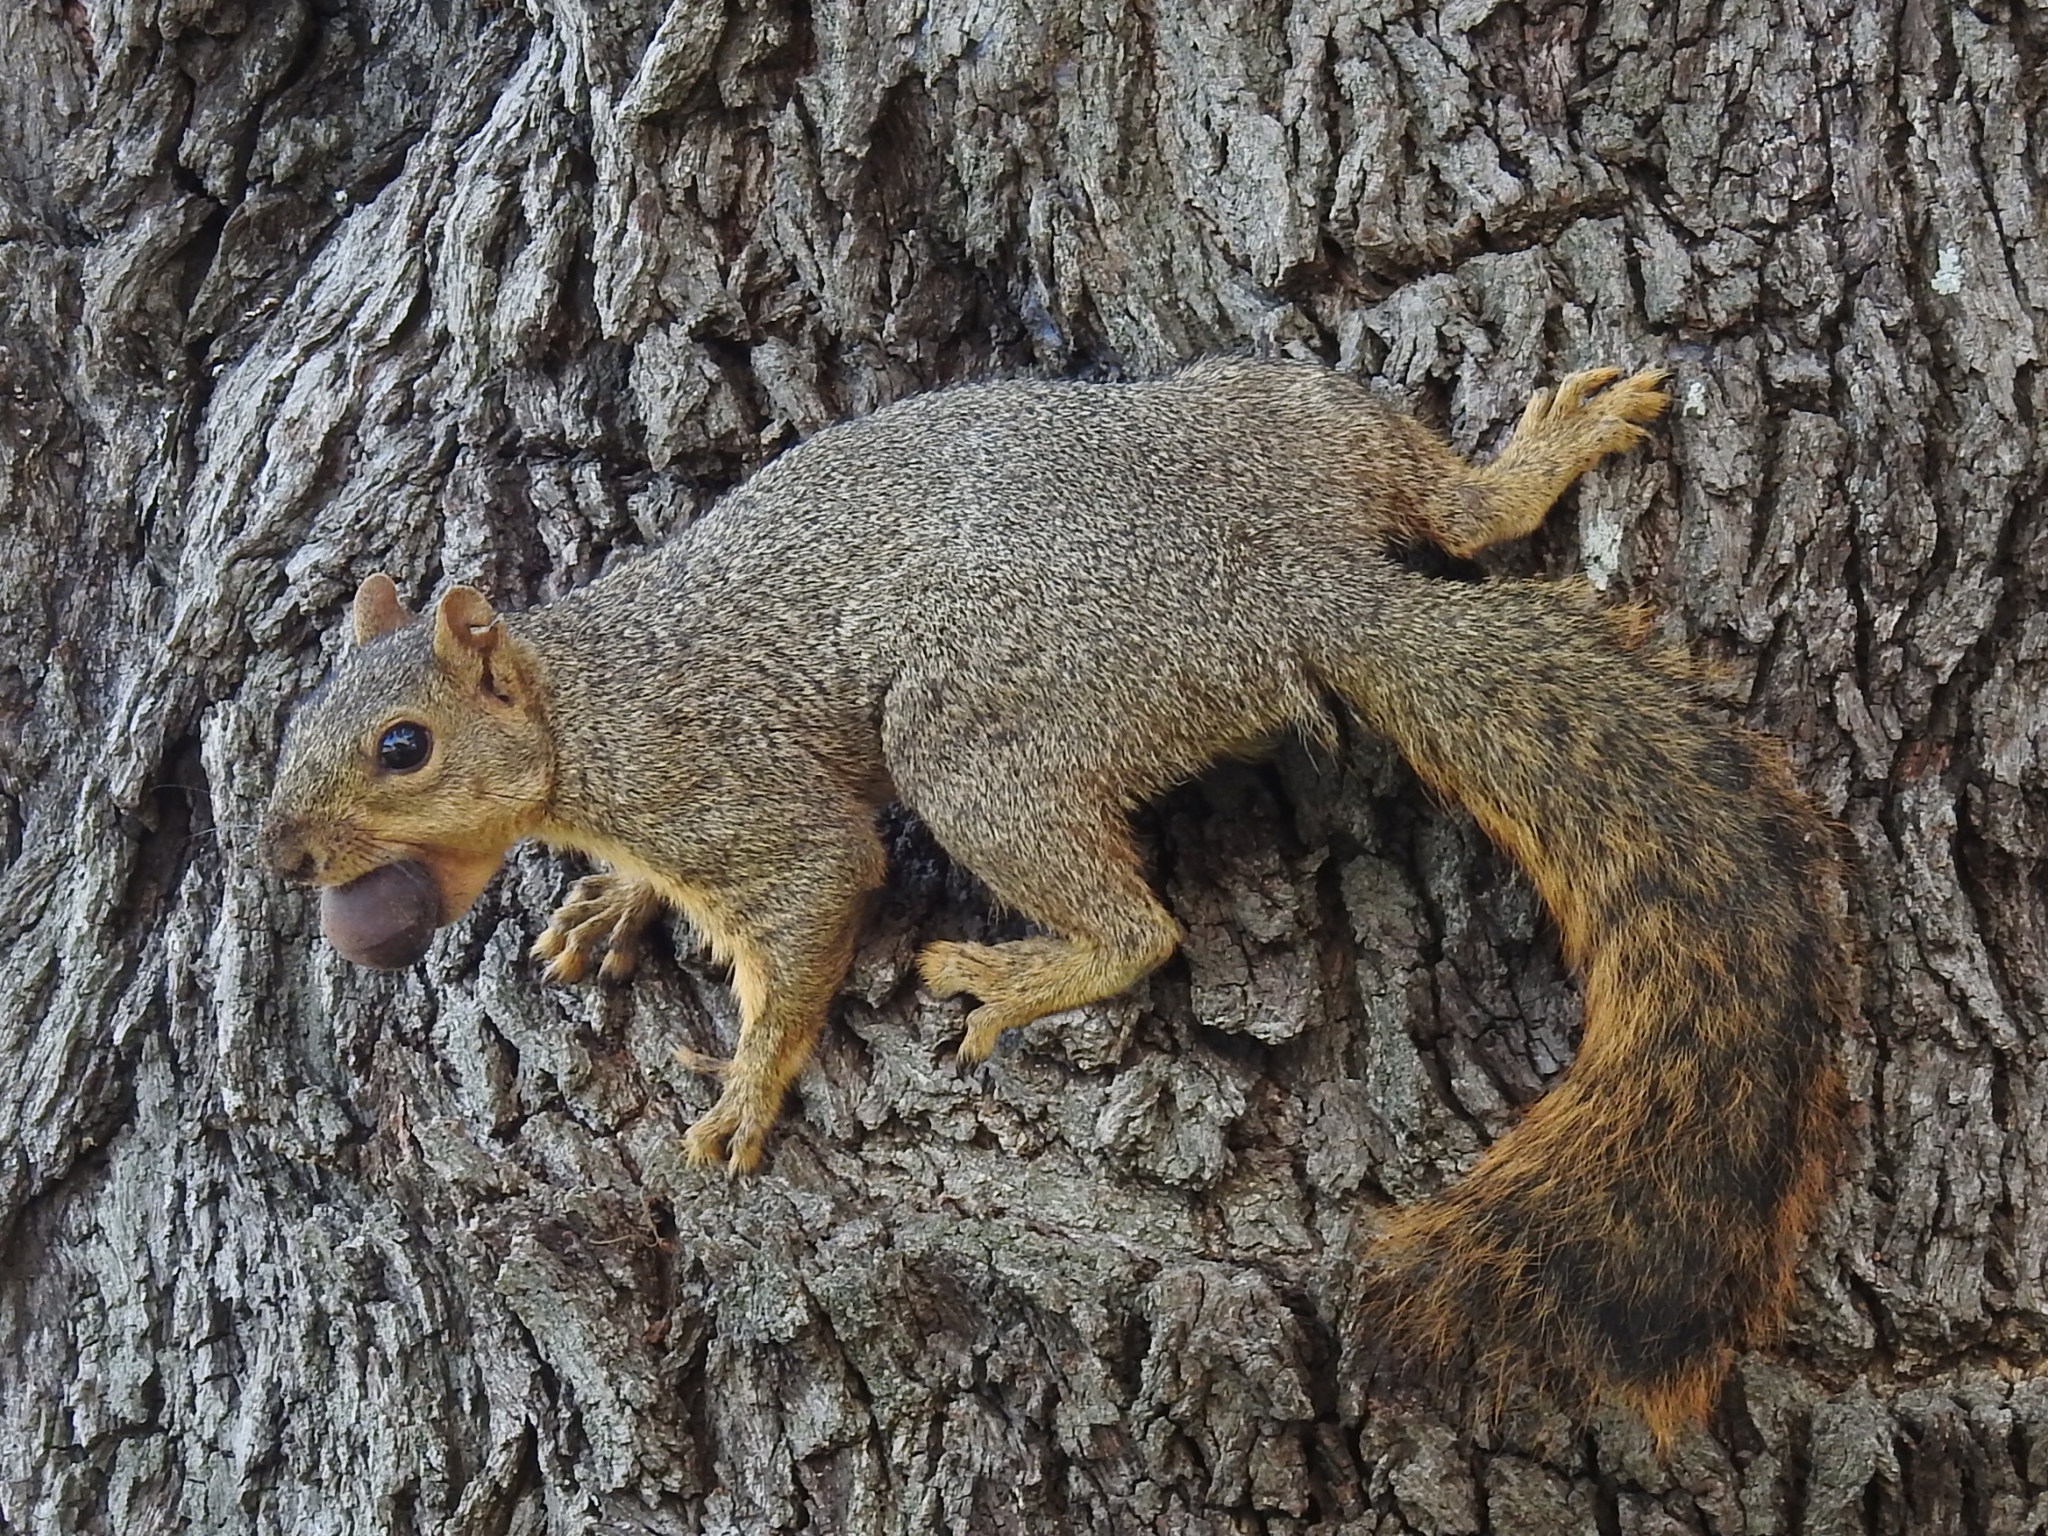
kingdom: Animalia
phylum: Chordata
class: Mammalia
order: Rodentia
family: Sciuridae
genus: Sciurus
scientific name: Sciurus niger
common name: Fox squirrel
